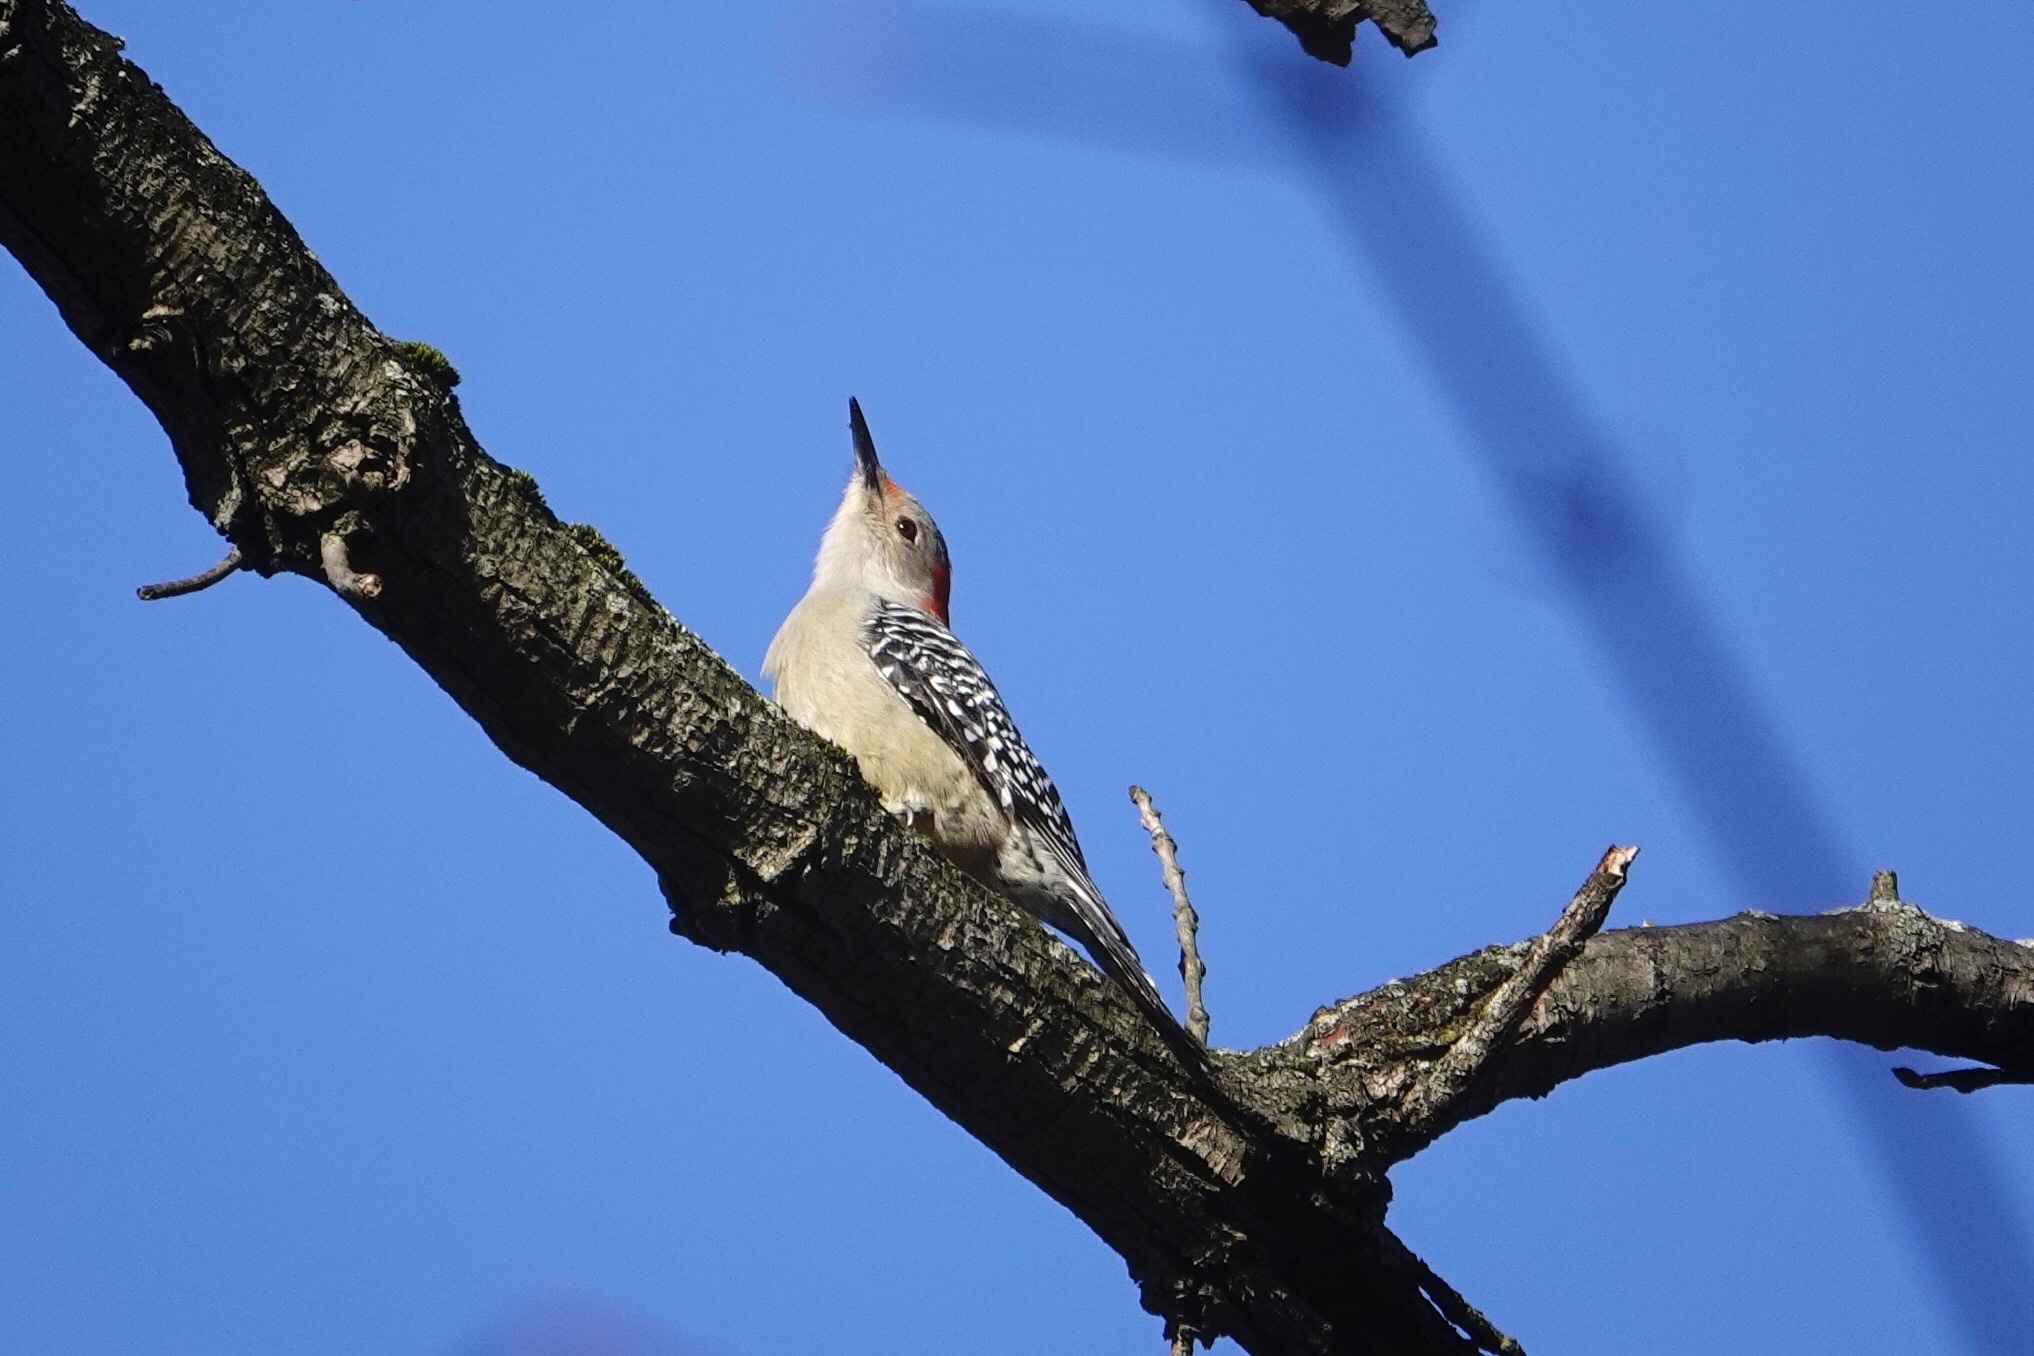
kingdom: Animalia
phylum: Chordata
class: Aves
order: Piciformes
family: Picidae
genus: Melanerpes
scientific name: Melanerpes carolinus
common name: Red-bellied woodpecker
